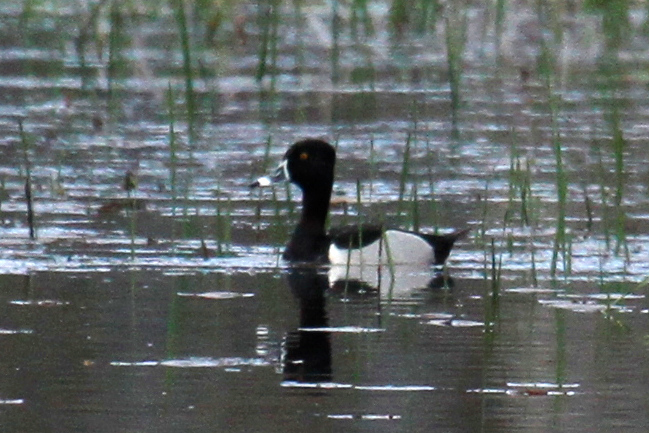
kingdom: Animalia
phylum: Chordata
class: Aves
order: Anseriformes
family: Anatidae
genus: Aythya
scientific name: Aythya collaris
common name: Ring-necked duck
